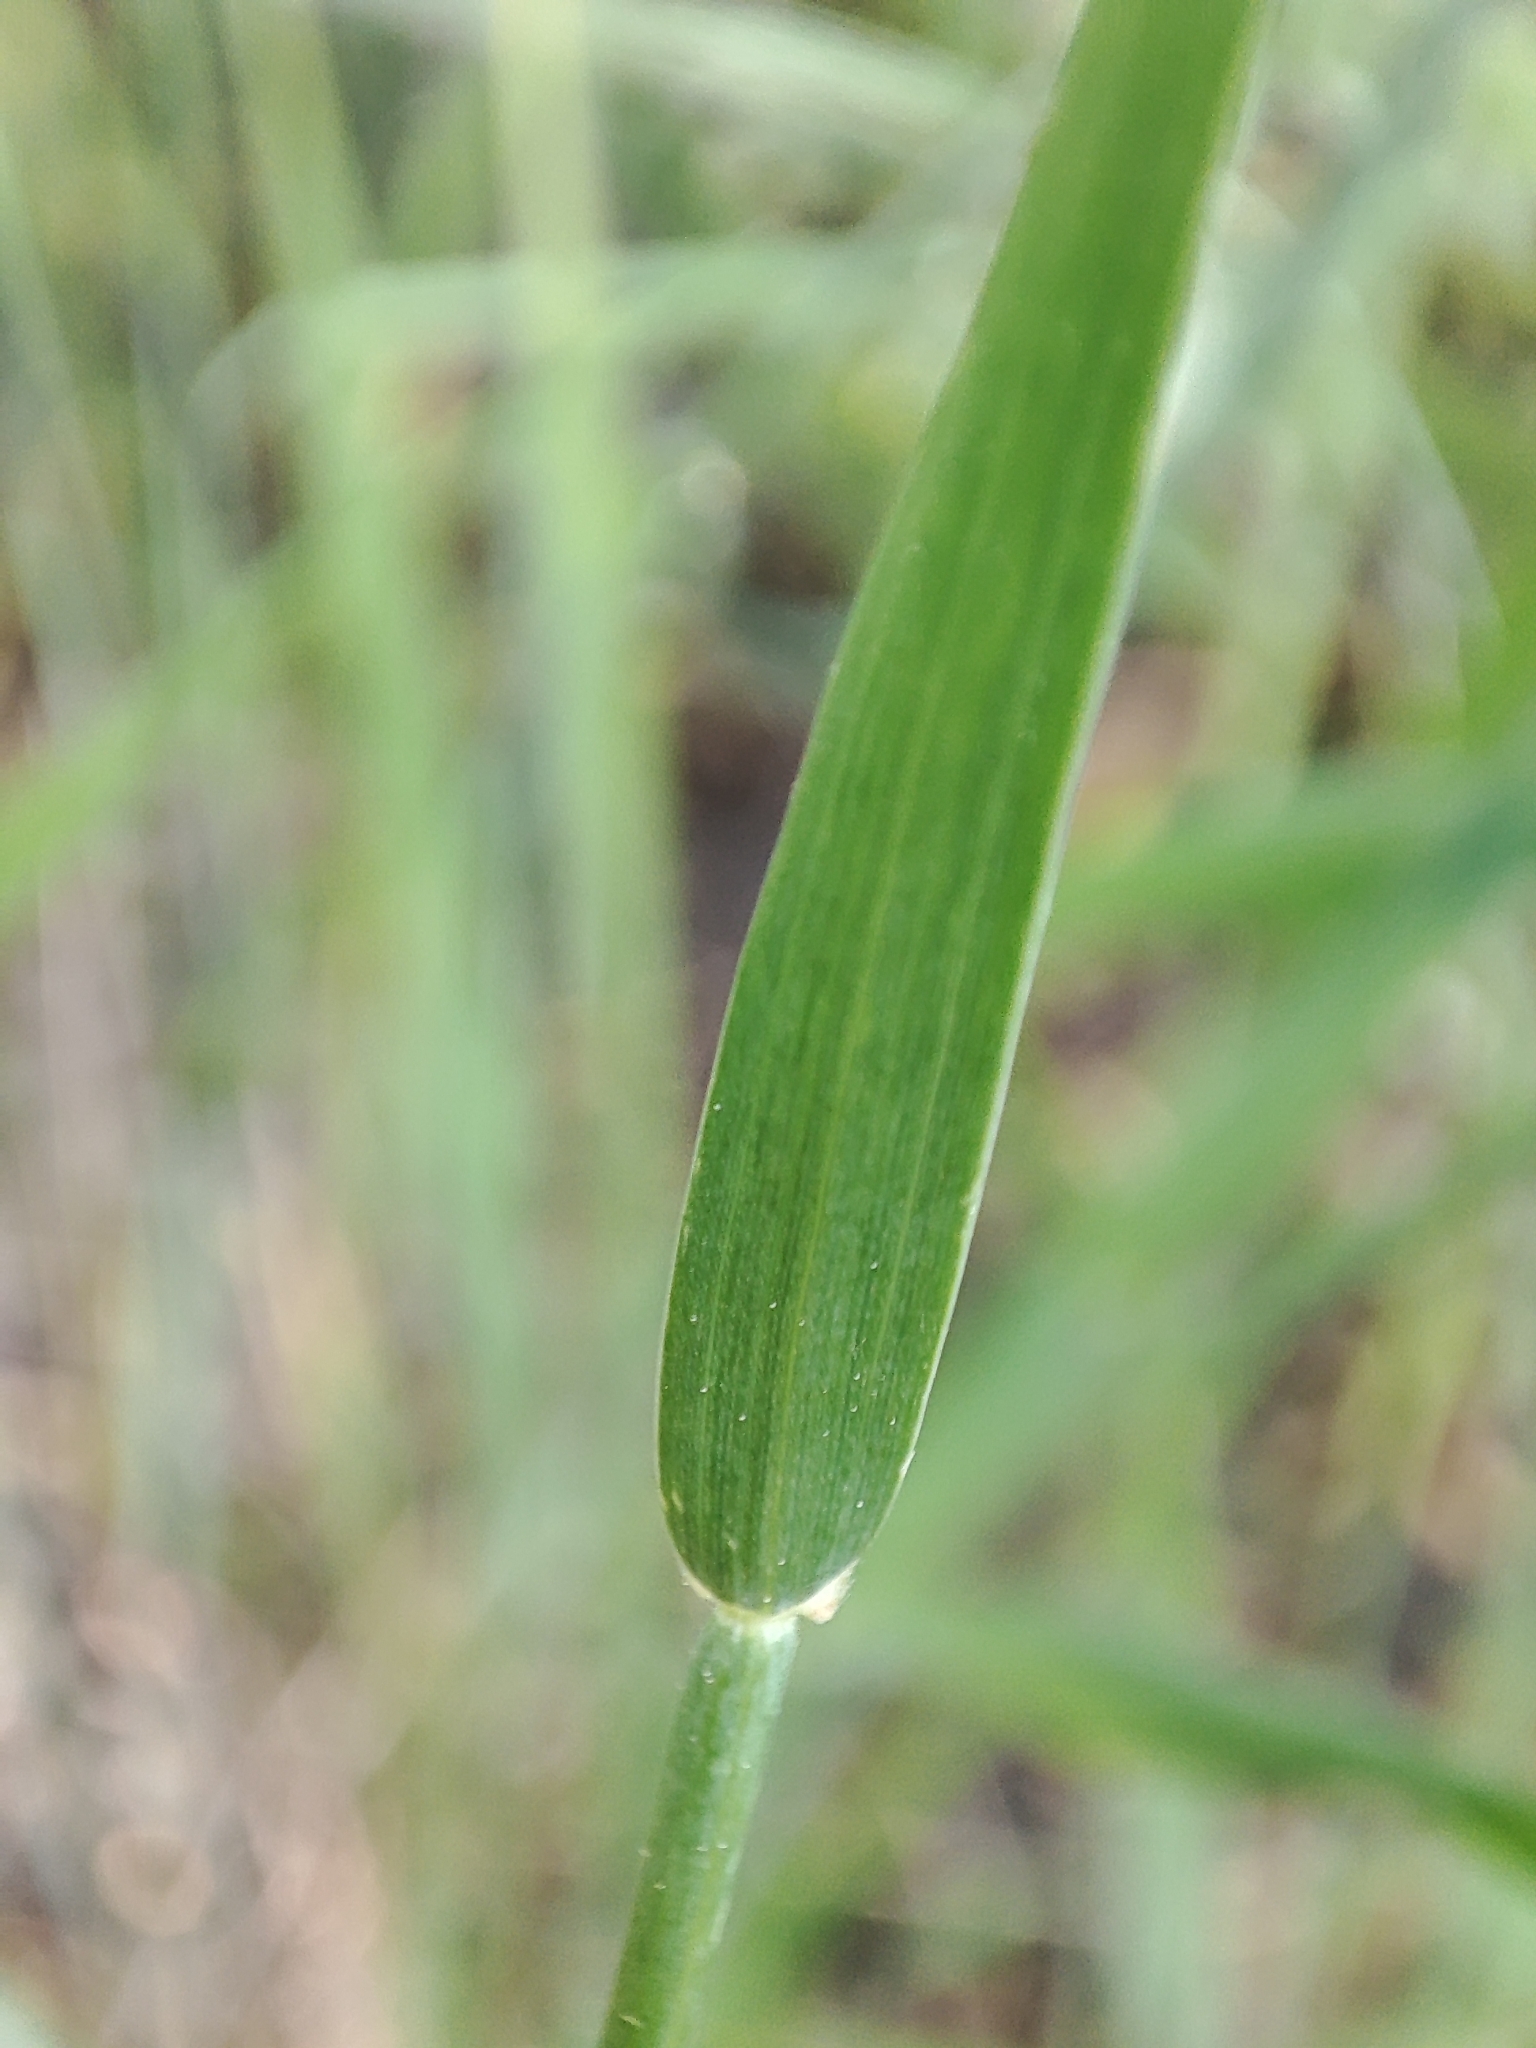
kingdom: Plantae
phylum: Tracheophyta
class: Liliopsida
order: Poales
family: Poaceae
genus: Secale
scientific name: Secale cereale
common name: Rye
